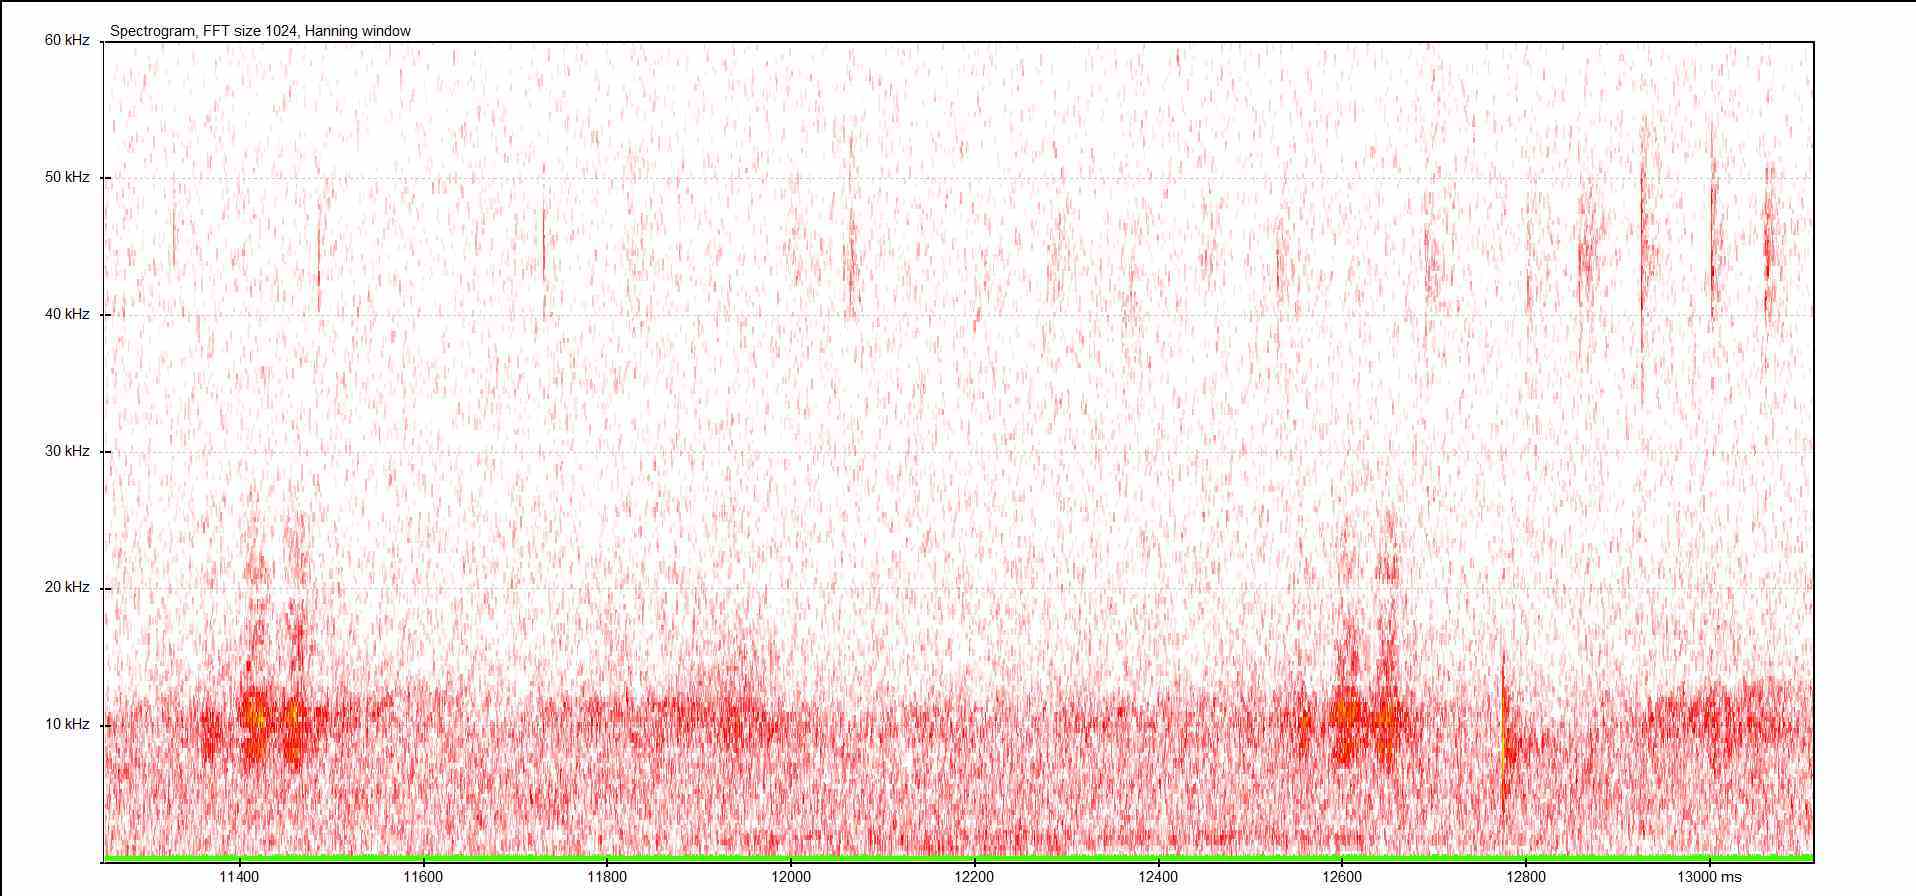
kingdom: Animalia
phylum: Arthropoda
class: Insecta
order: Orthoptera
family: Tettigoniidae
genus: Pholidoptera
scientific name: Pholidoptera griseoaptera
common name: Dark bush-cricket
